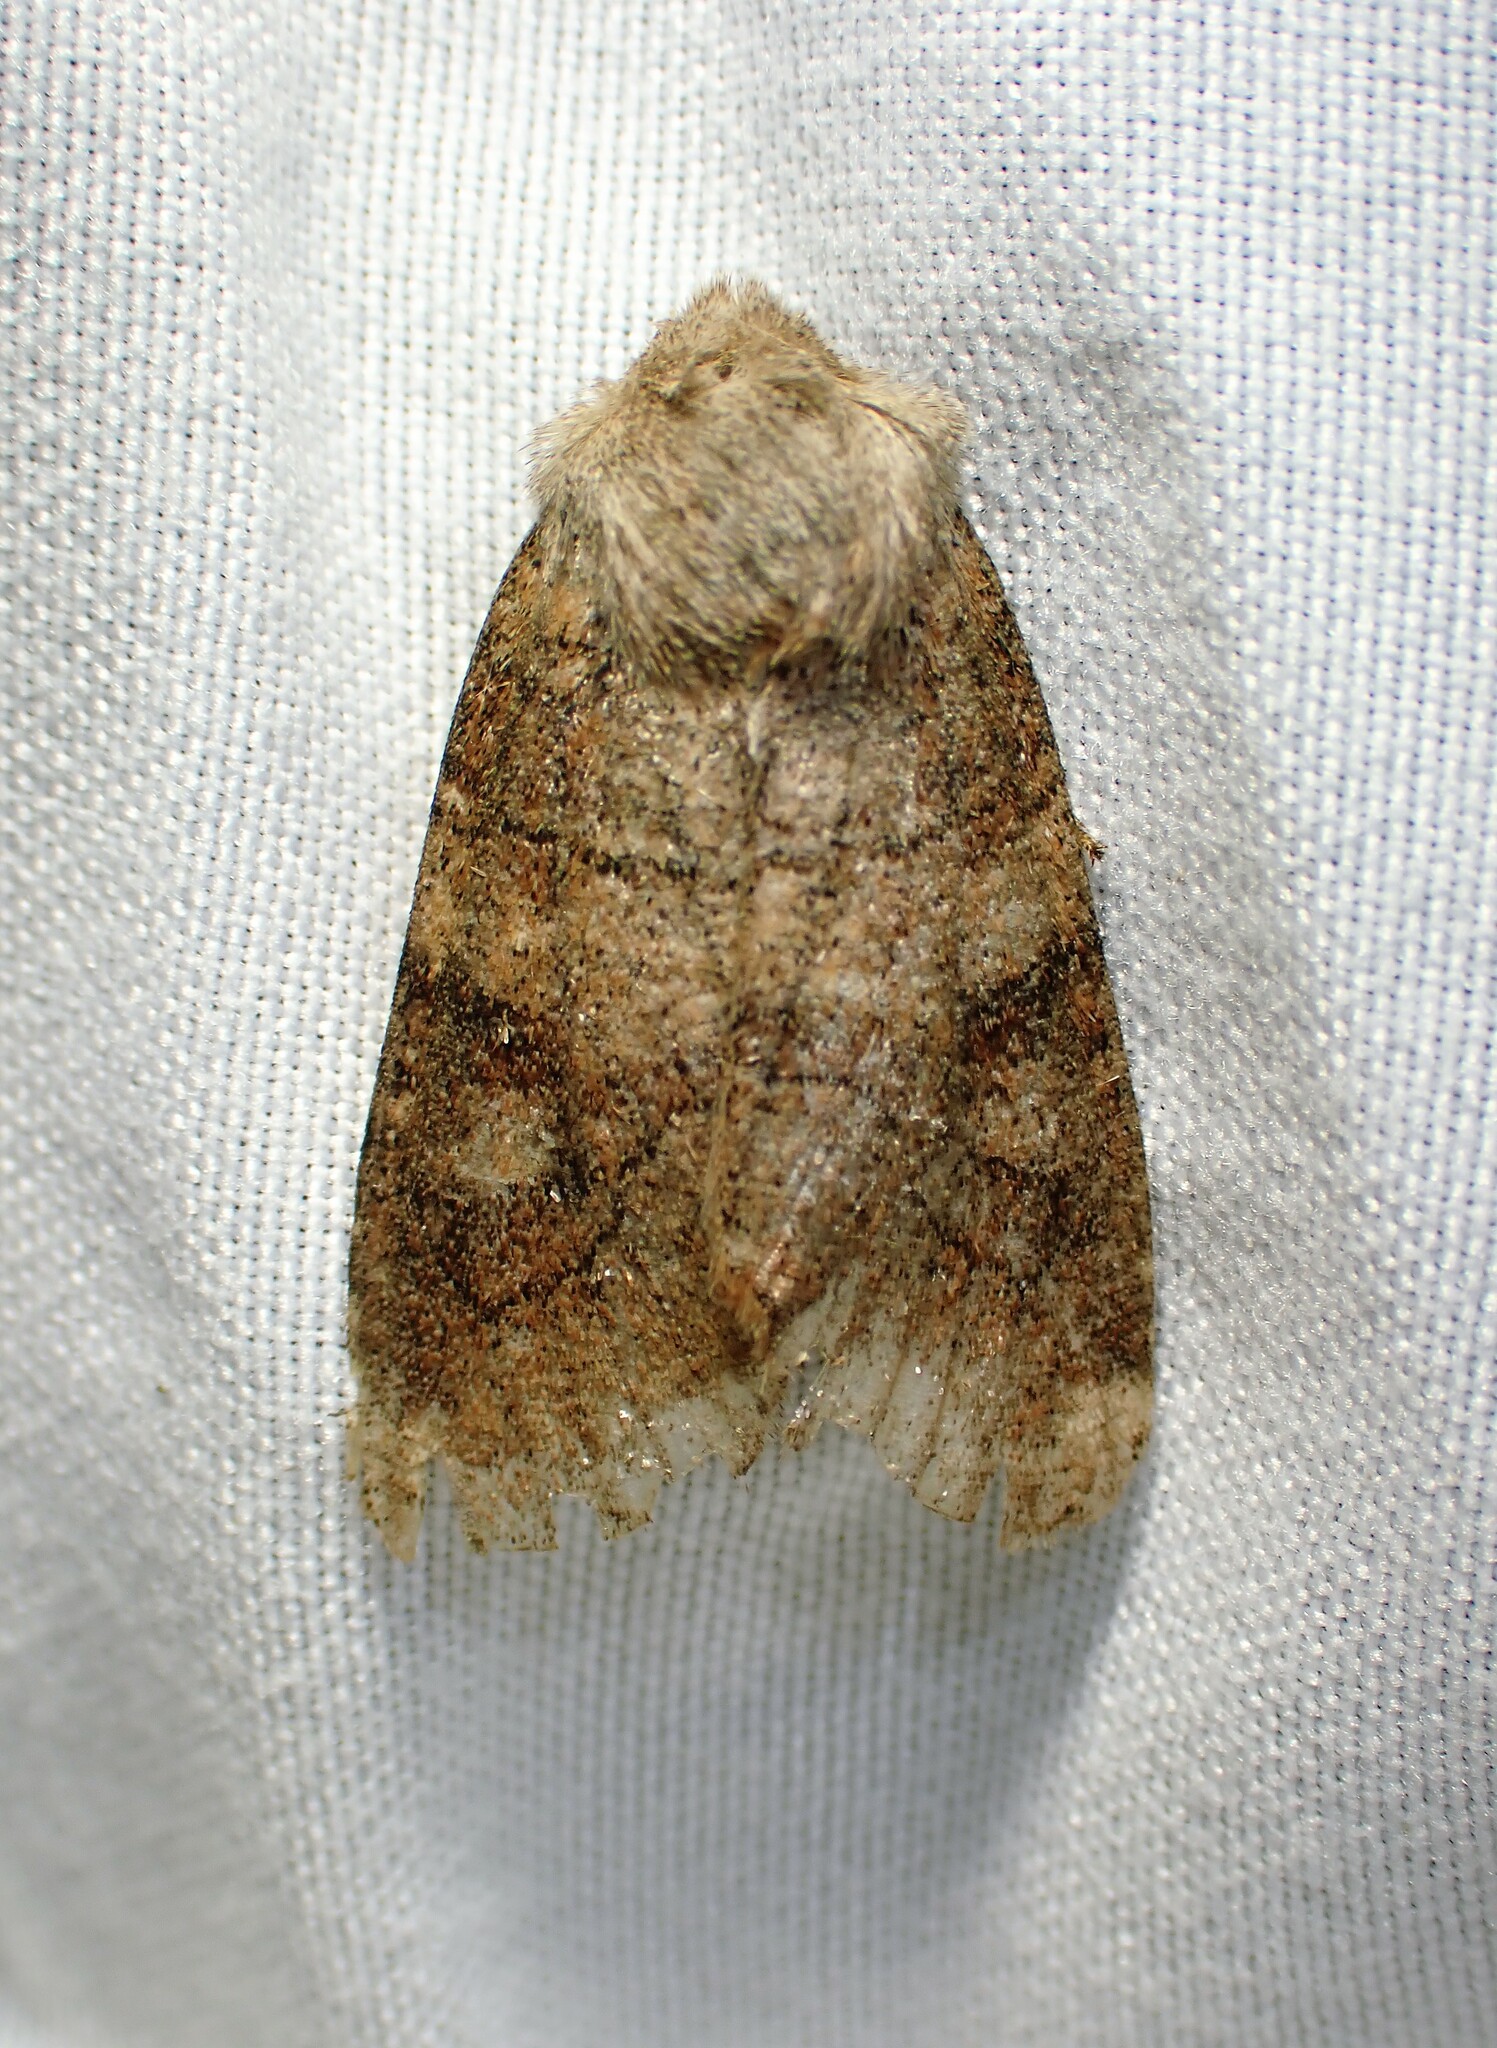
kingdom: Animalia
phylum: Arthropoda
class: Insecta
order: Lepidoptera
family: Noctuidae
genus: Crocigrapha
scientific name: Crocigrapha normani
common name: Norman's quaker
